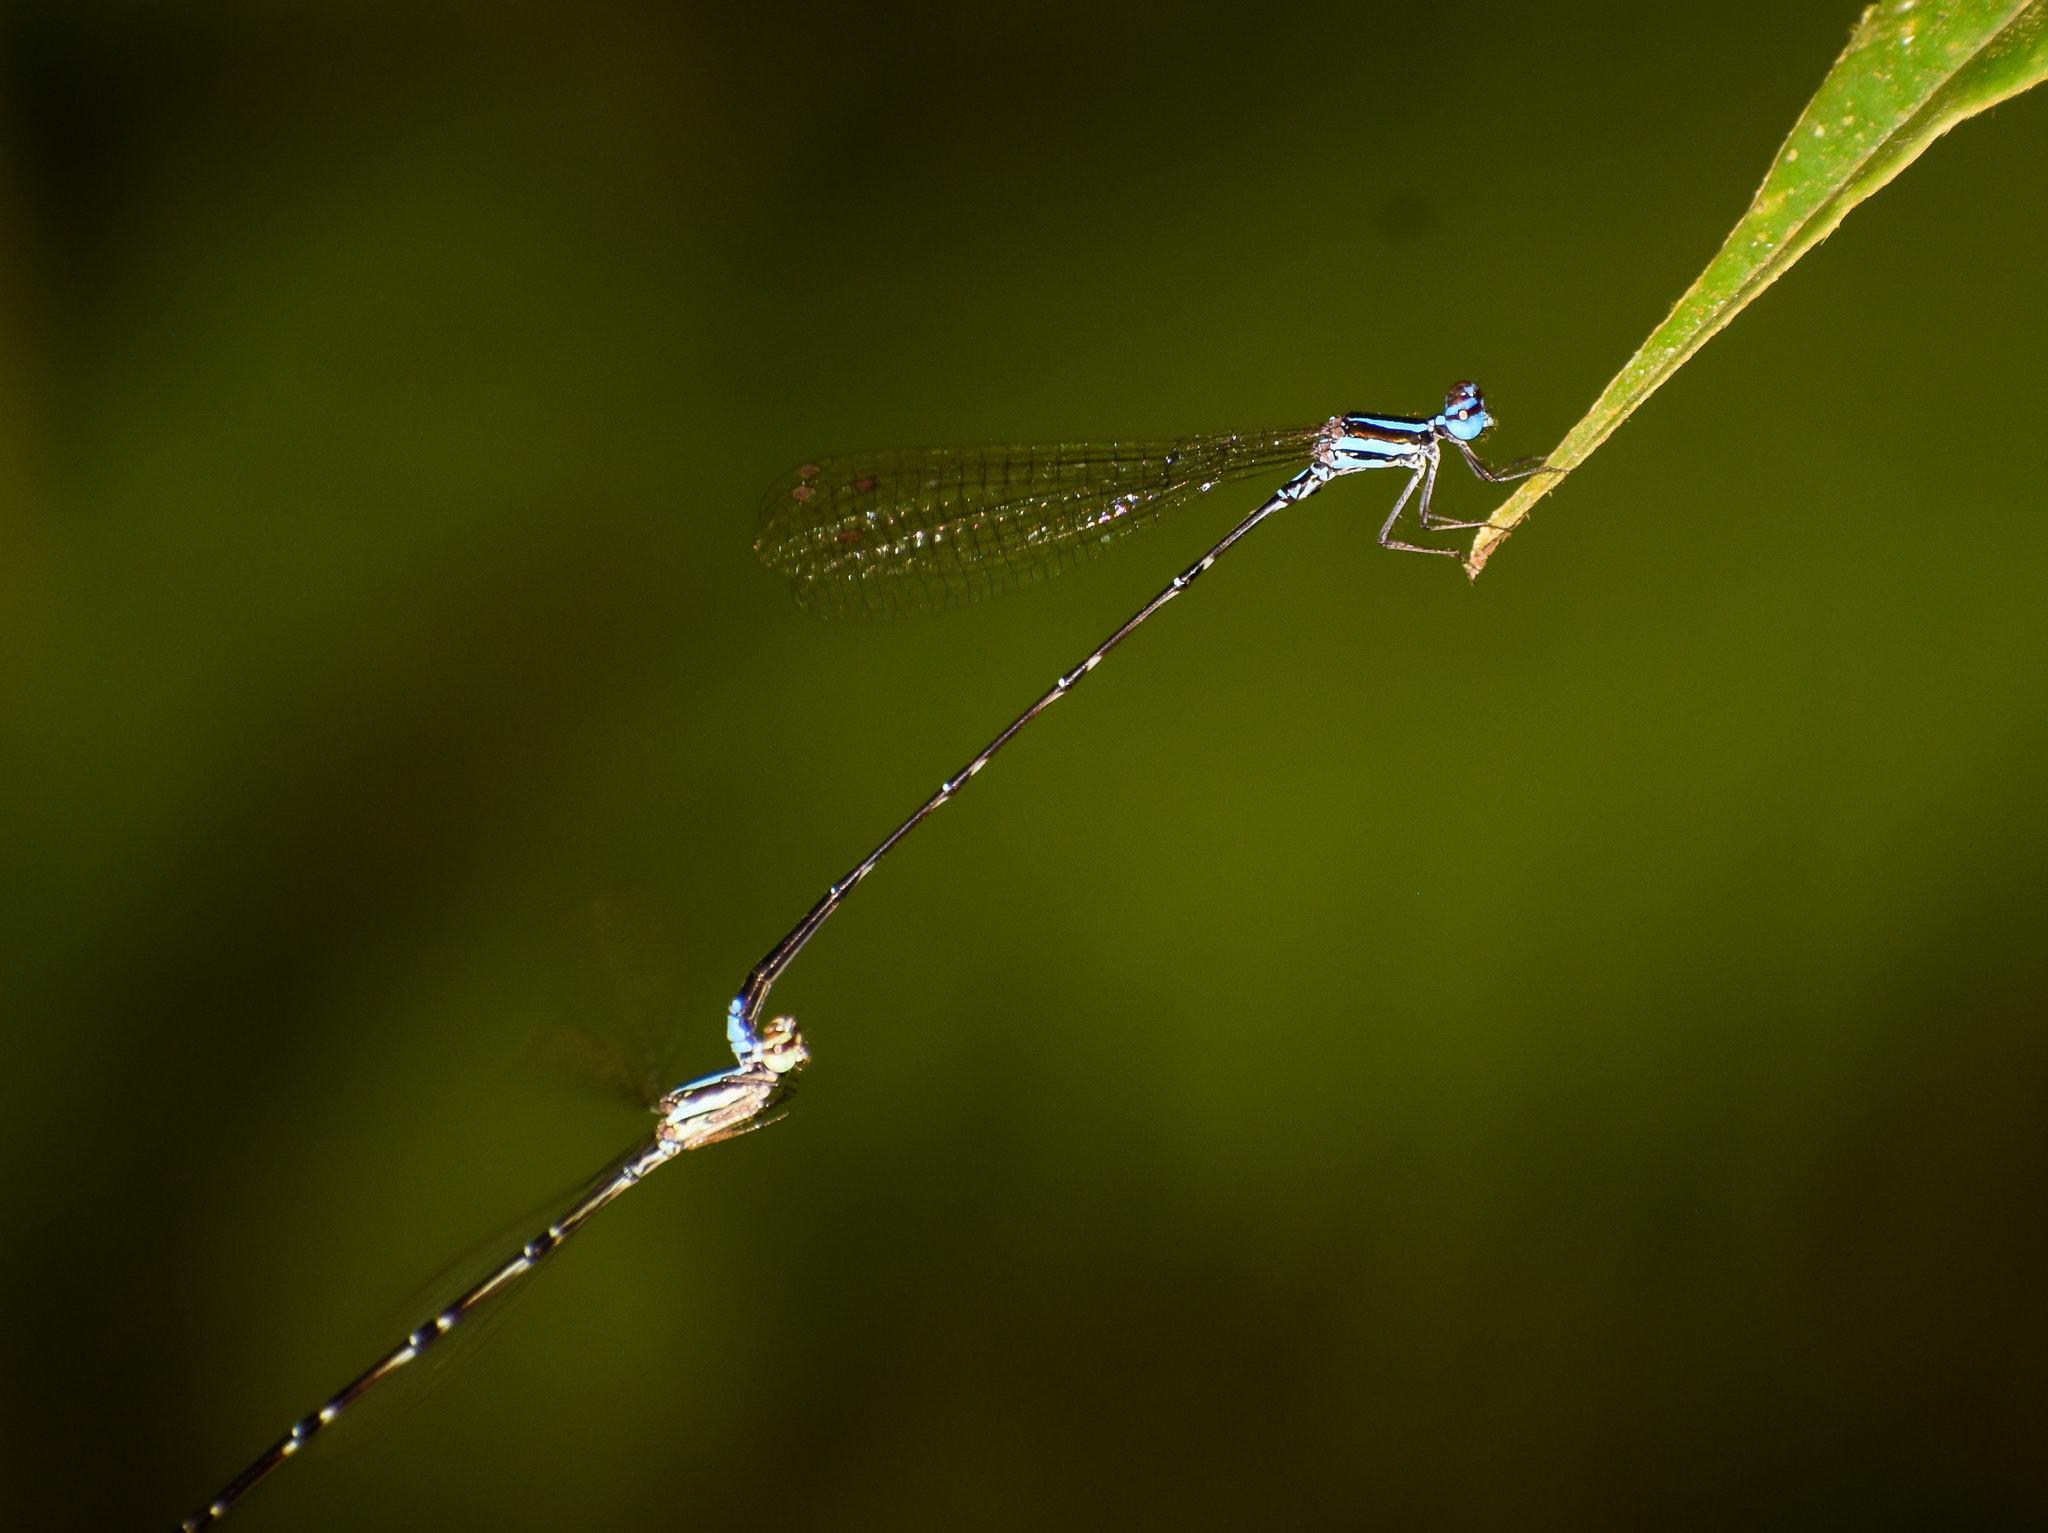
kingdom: Animalia
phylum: Arthropoda
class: Insecta
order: Odonata
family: Platycnemididae
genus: Elattoneura
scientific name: Elattoneura campioni
